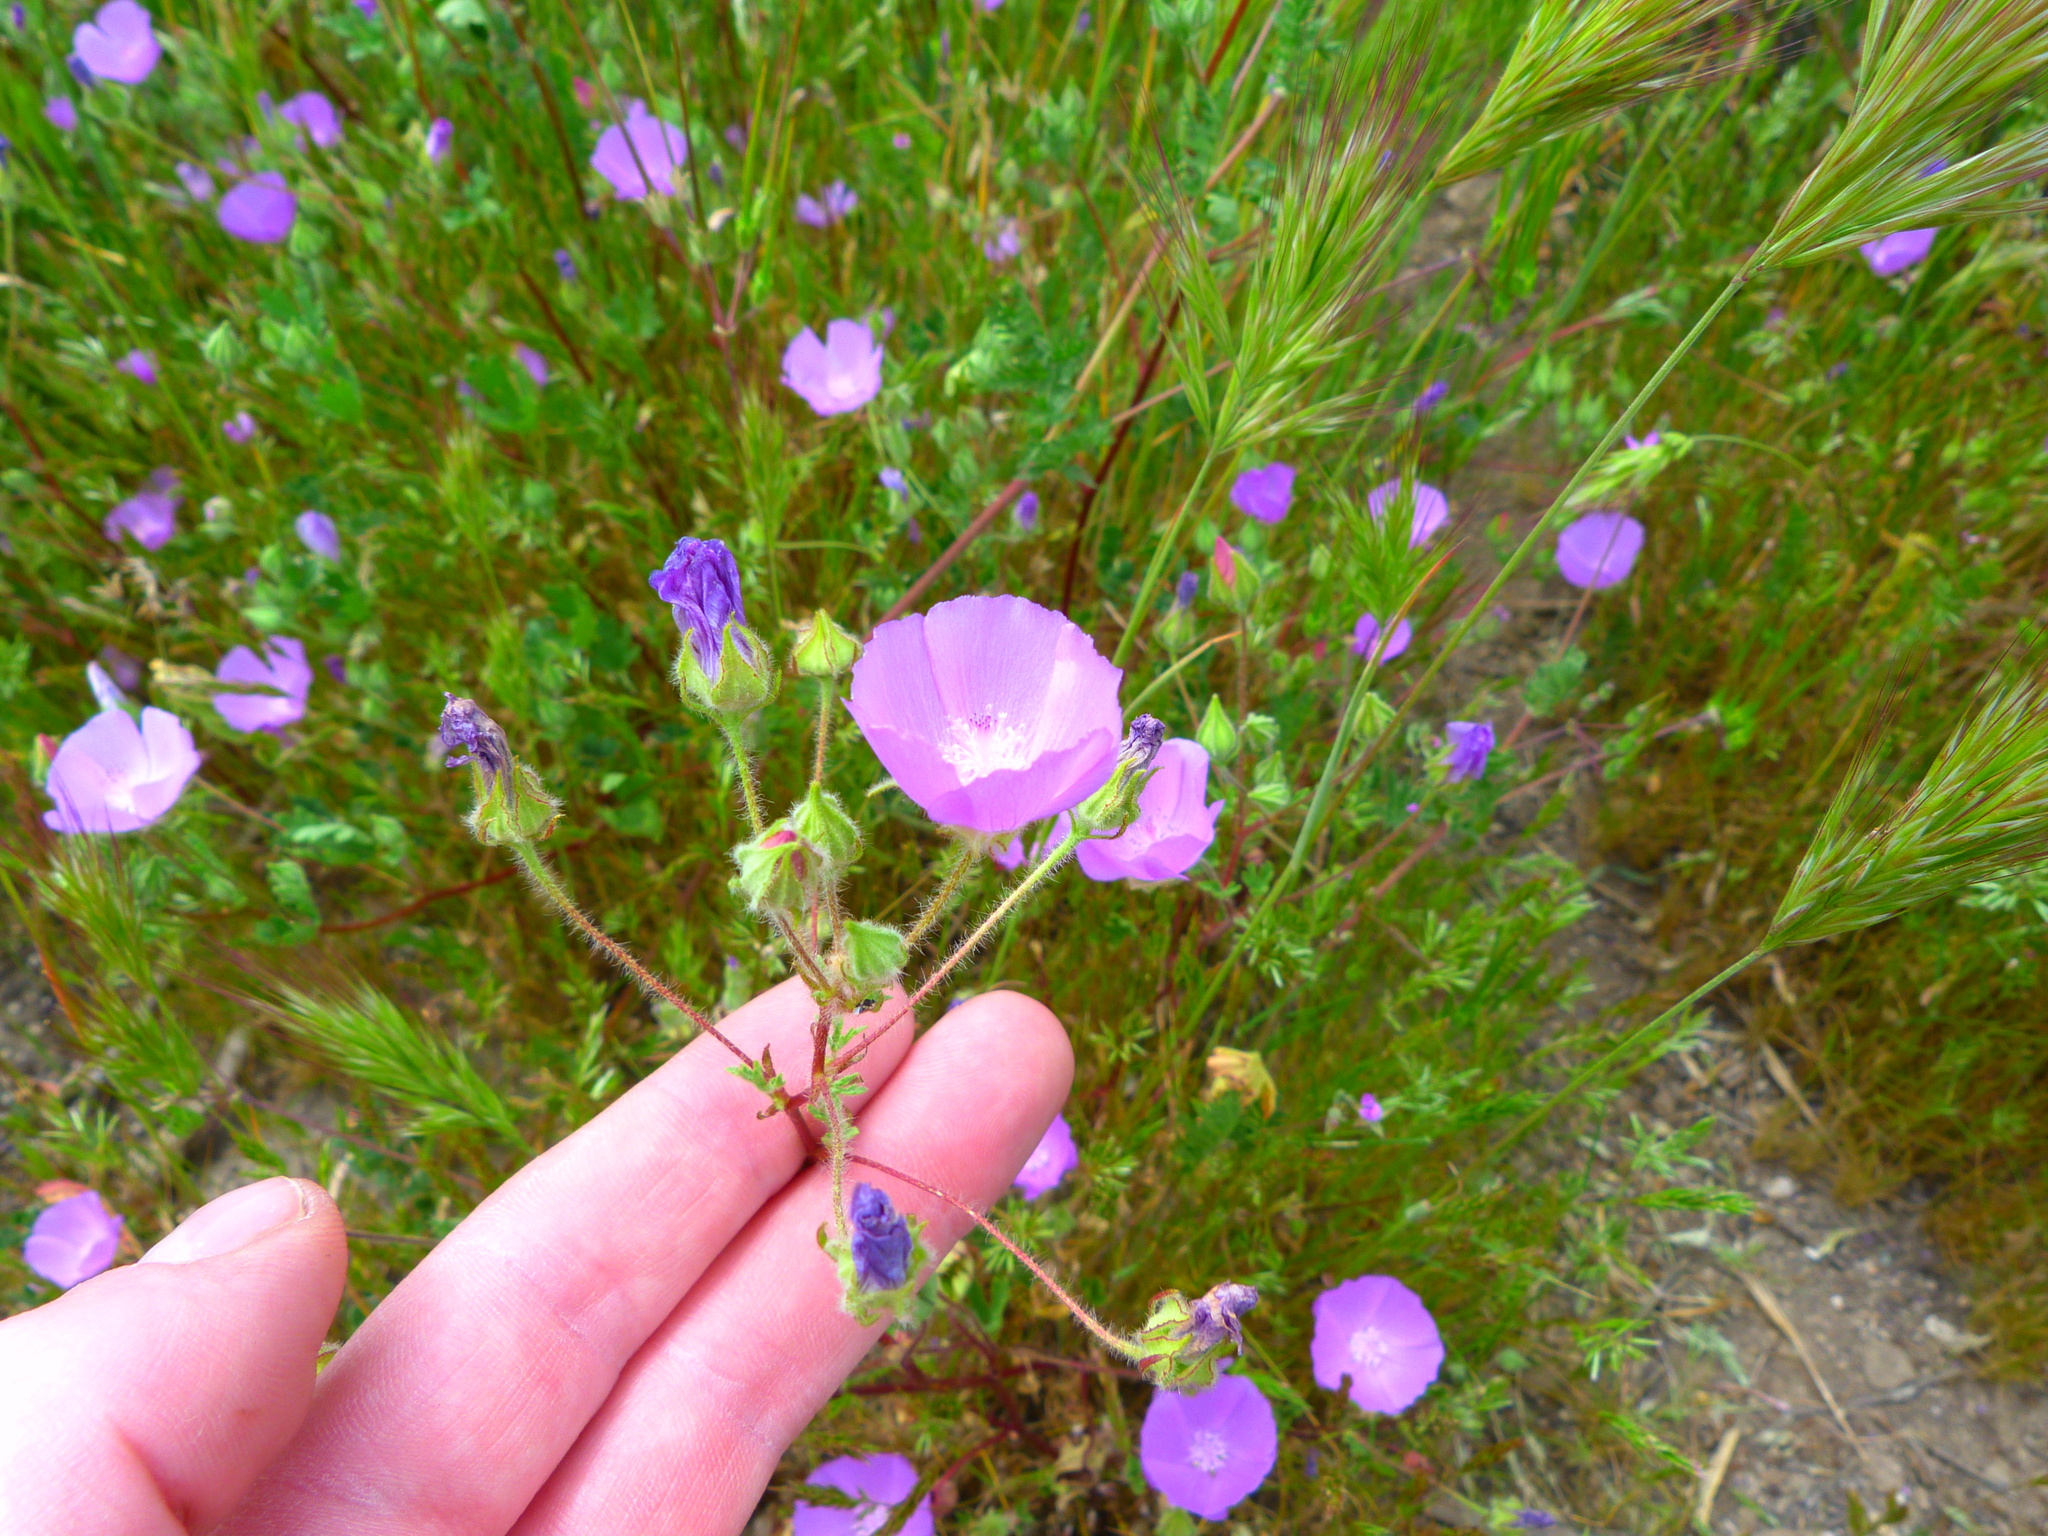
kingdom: Plantae
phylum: Tracheophyta
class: Magnoliopsida
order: Malvales
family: Malvaceae
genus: Eremalche
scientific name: Eremalche parryi
